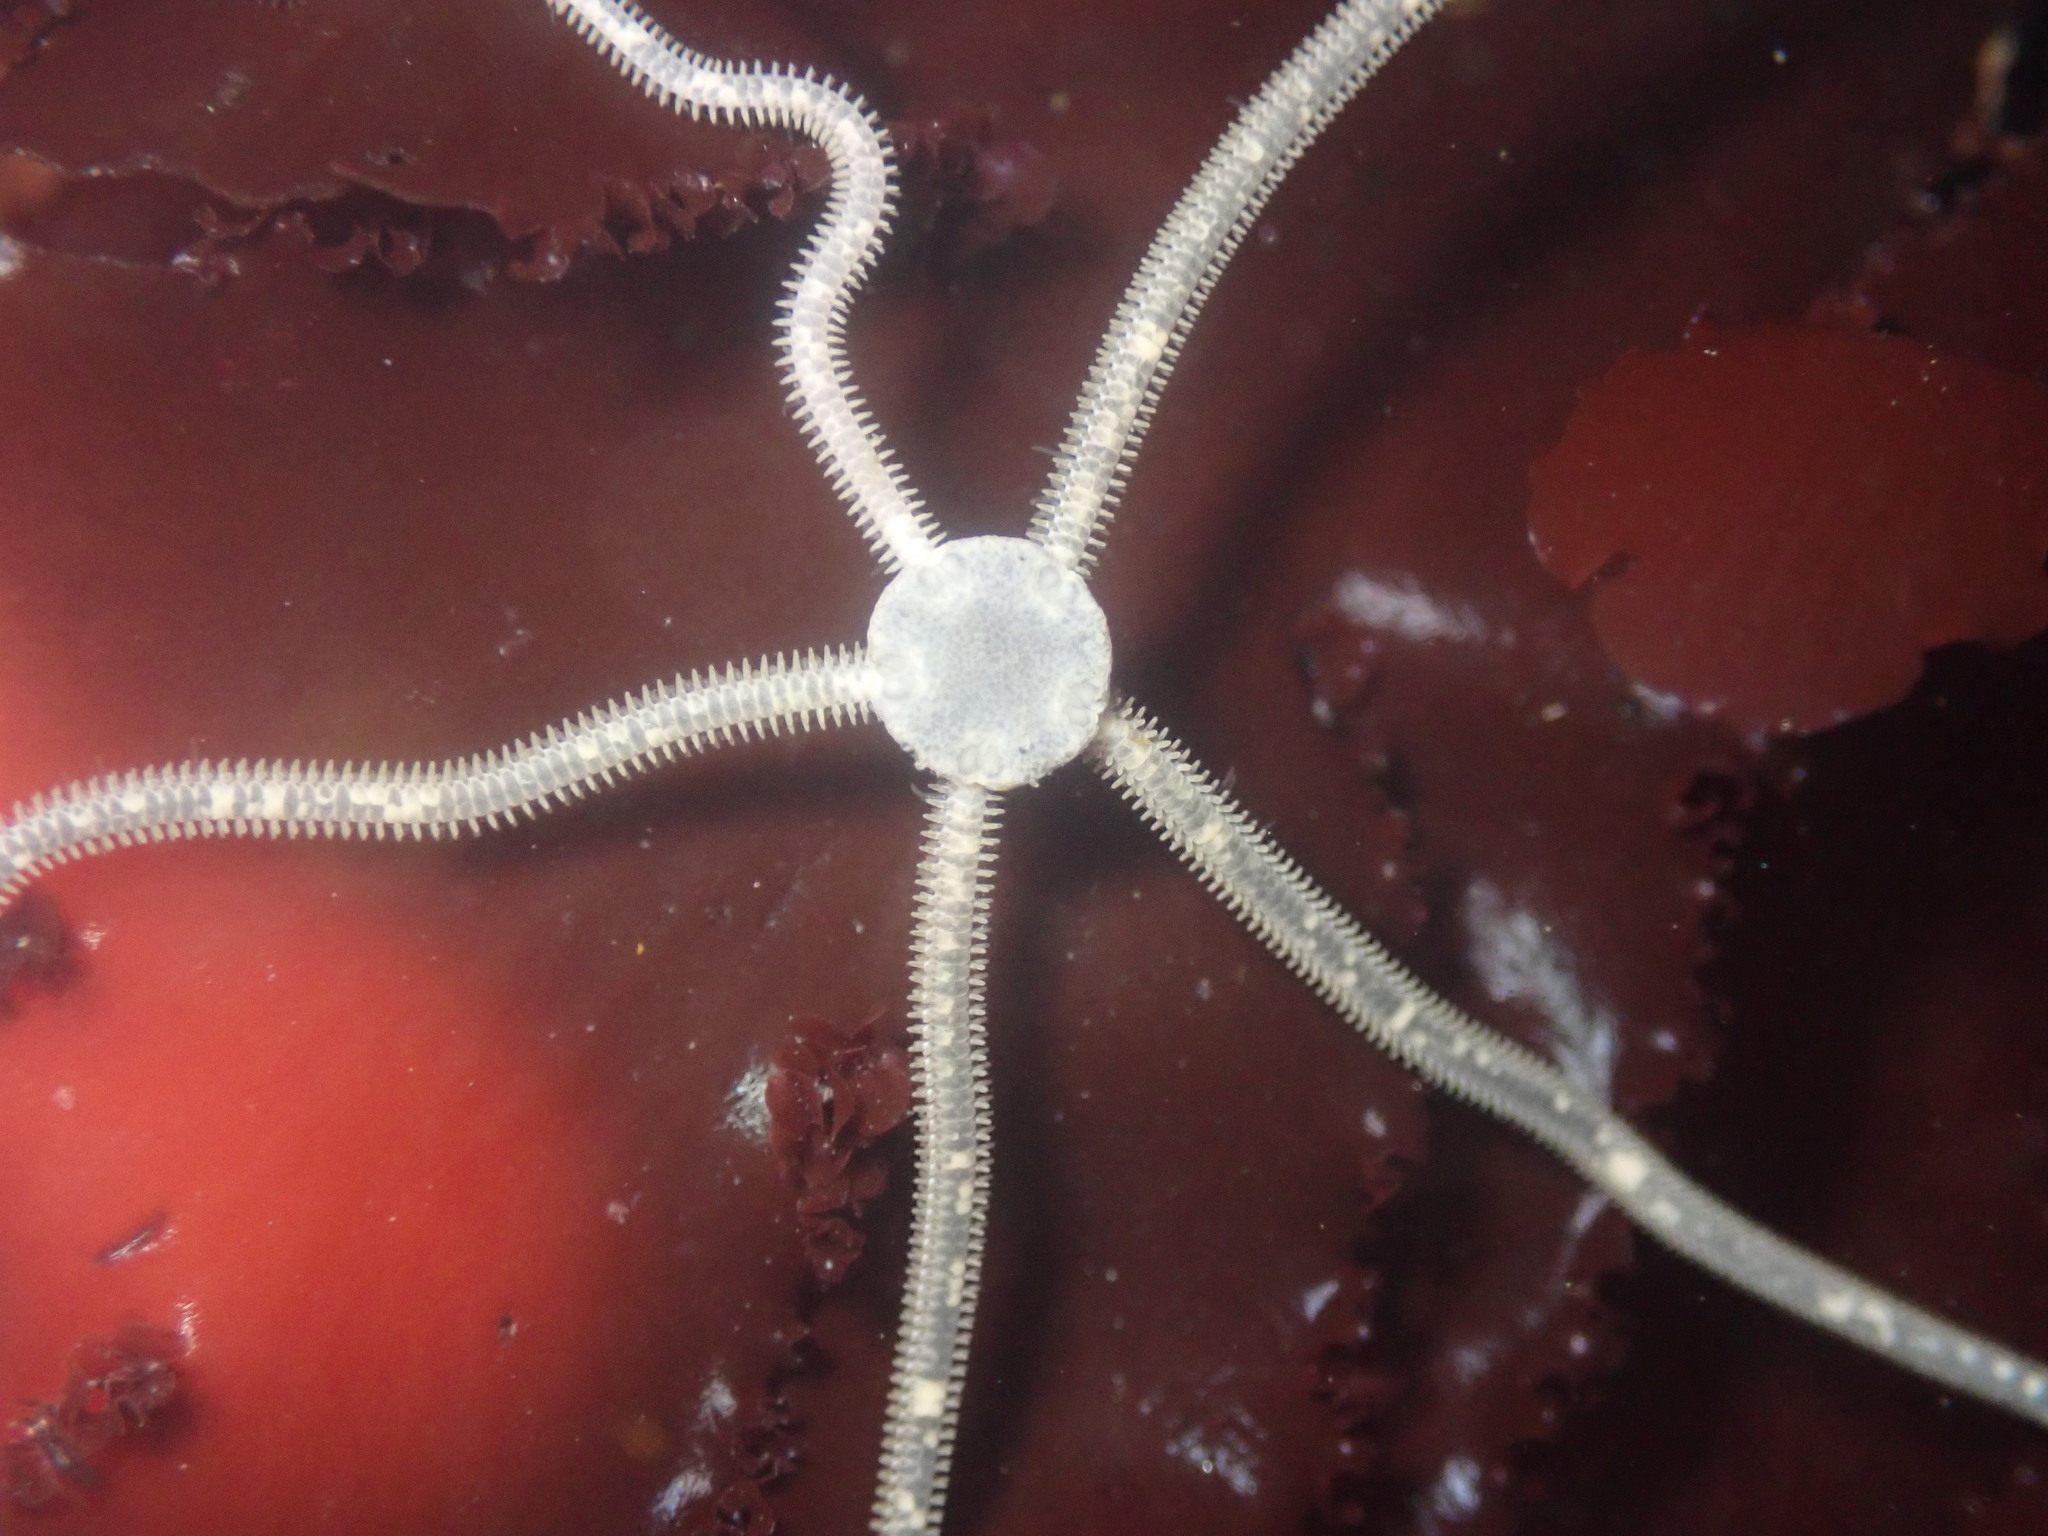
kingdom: Animalia
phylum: Echinodermata
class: Ophiuroidea
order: Amphilepidida
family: Amphiuridae
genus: Amphiodia
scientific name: Amphiodia occidentalis
